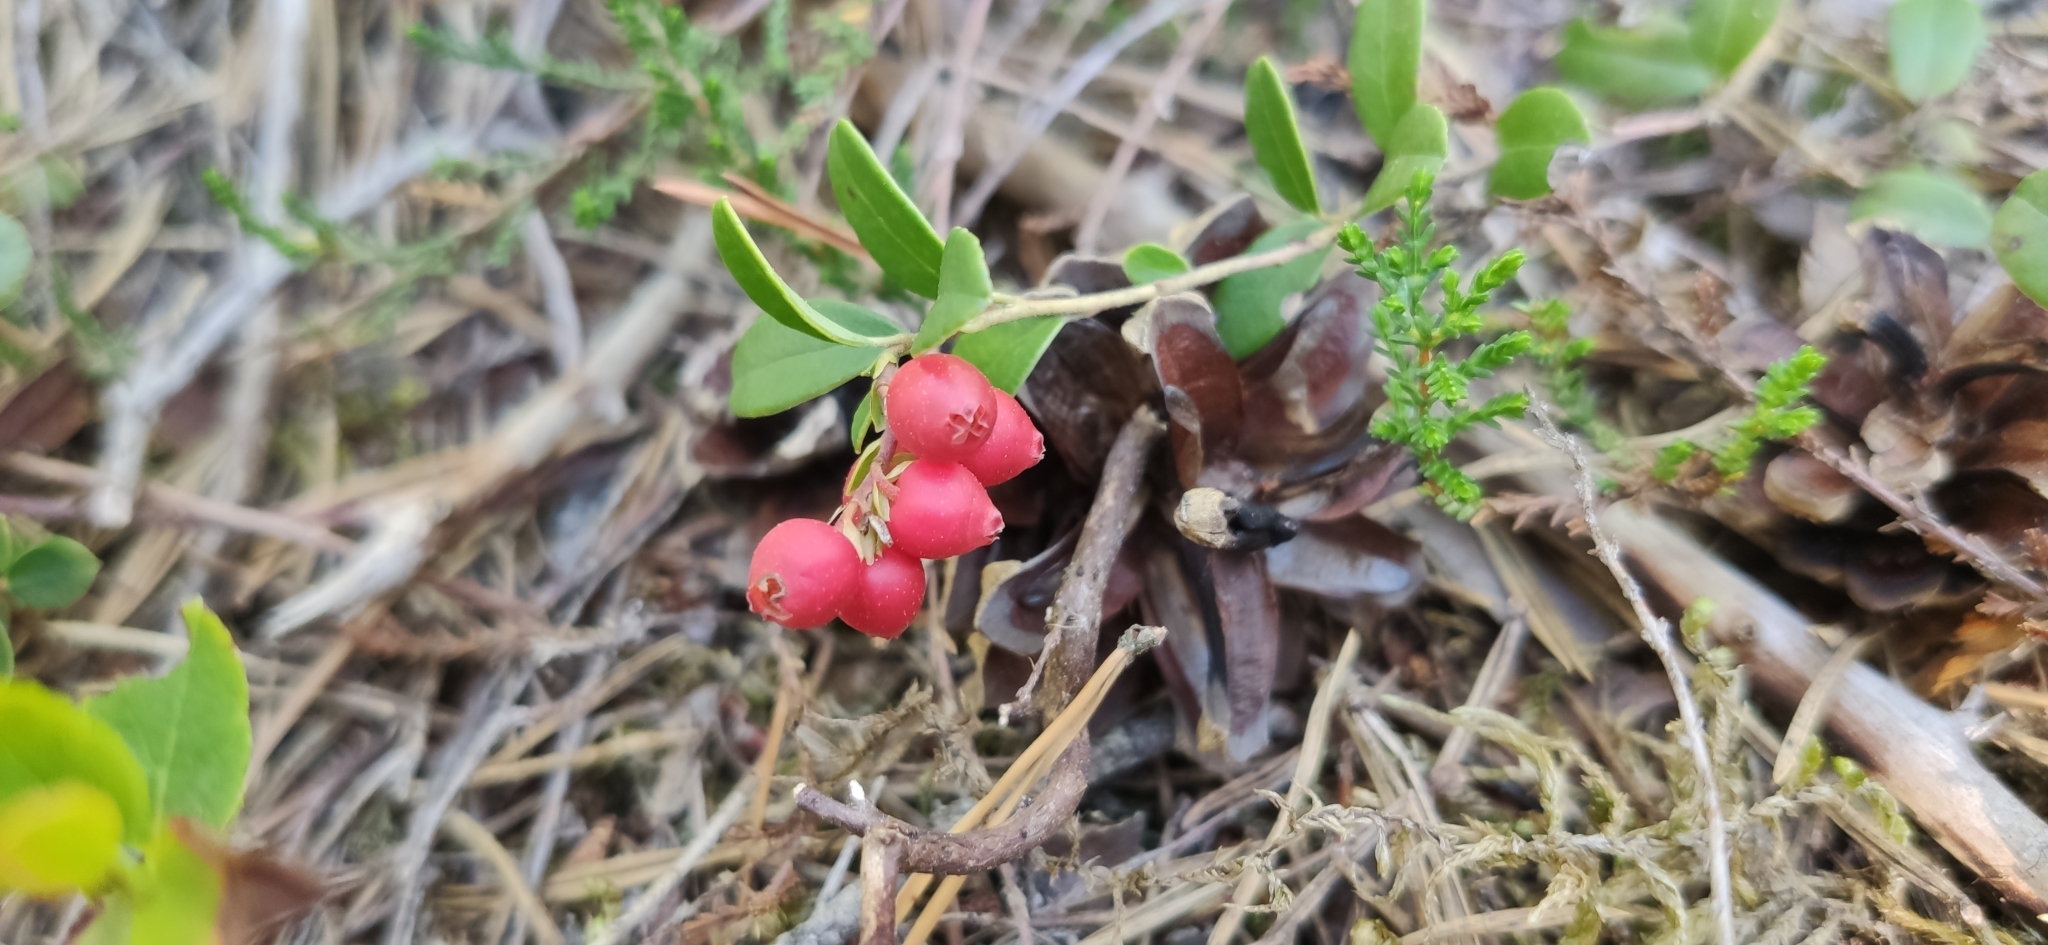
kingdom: Plantae
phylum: Tracheophyta
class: Magnoliopsida
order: Ericales
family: Ericaceae
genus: Vaccinium
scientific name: Vaccinium vitis-idaea
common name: Cowberry
